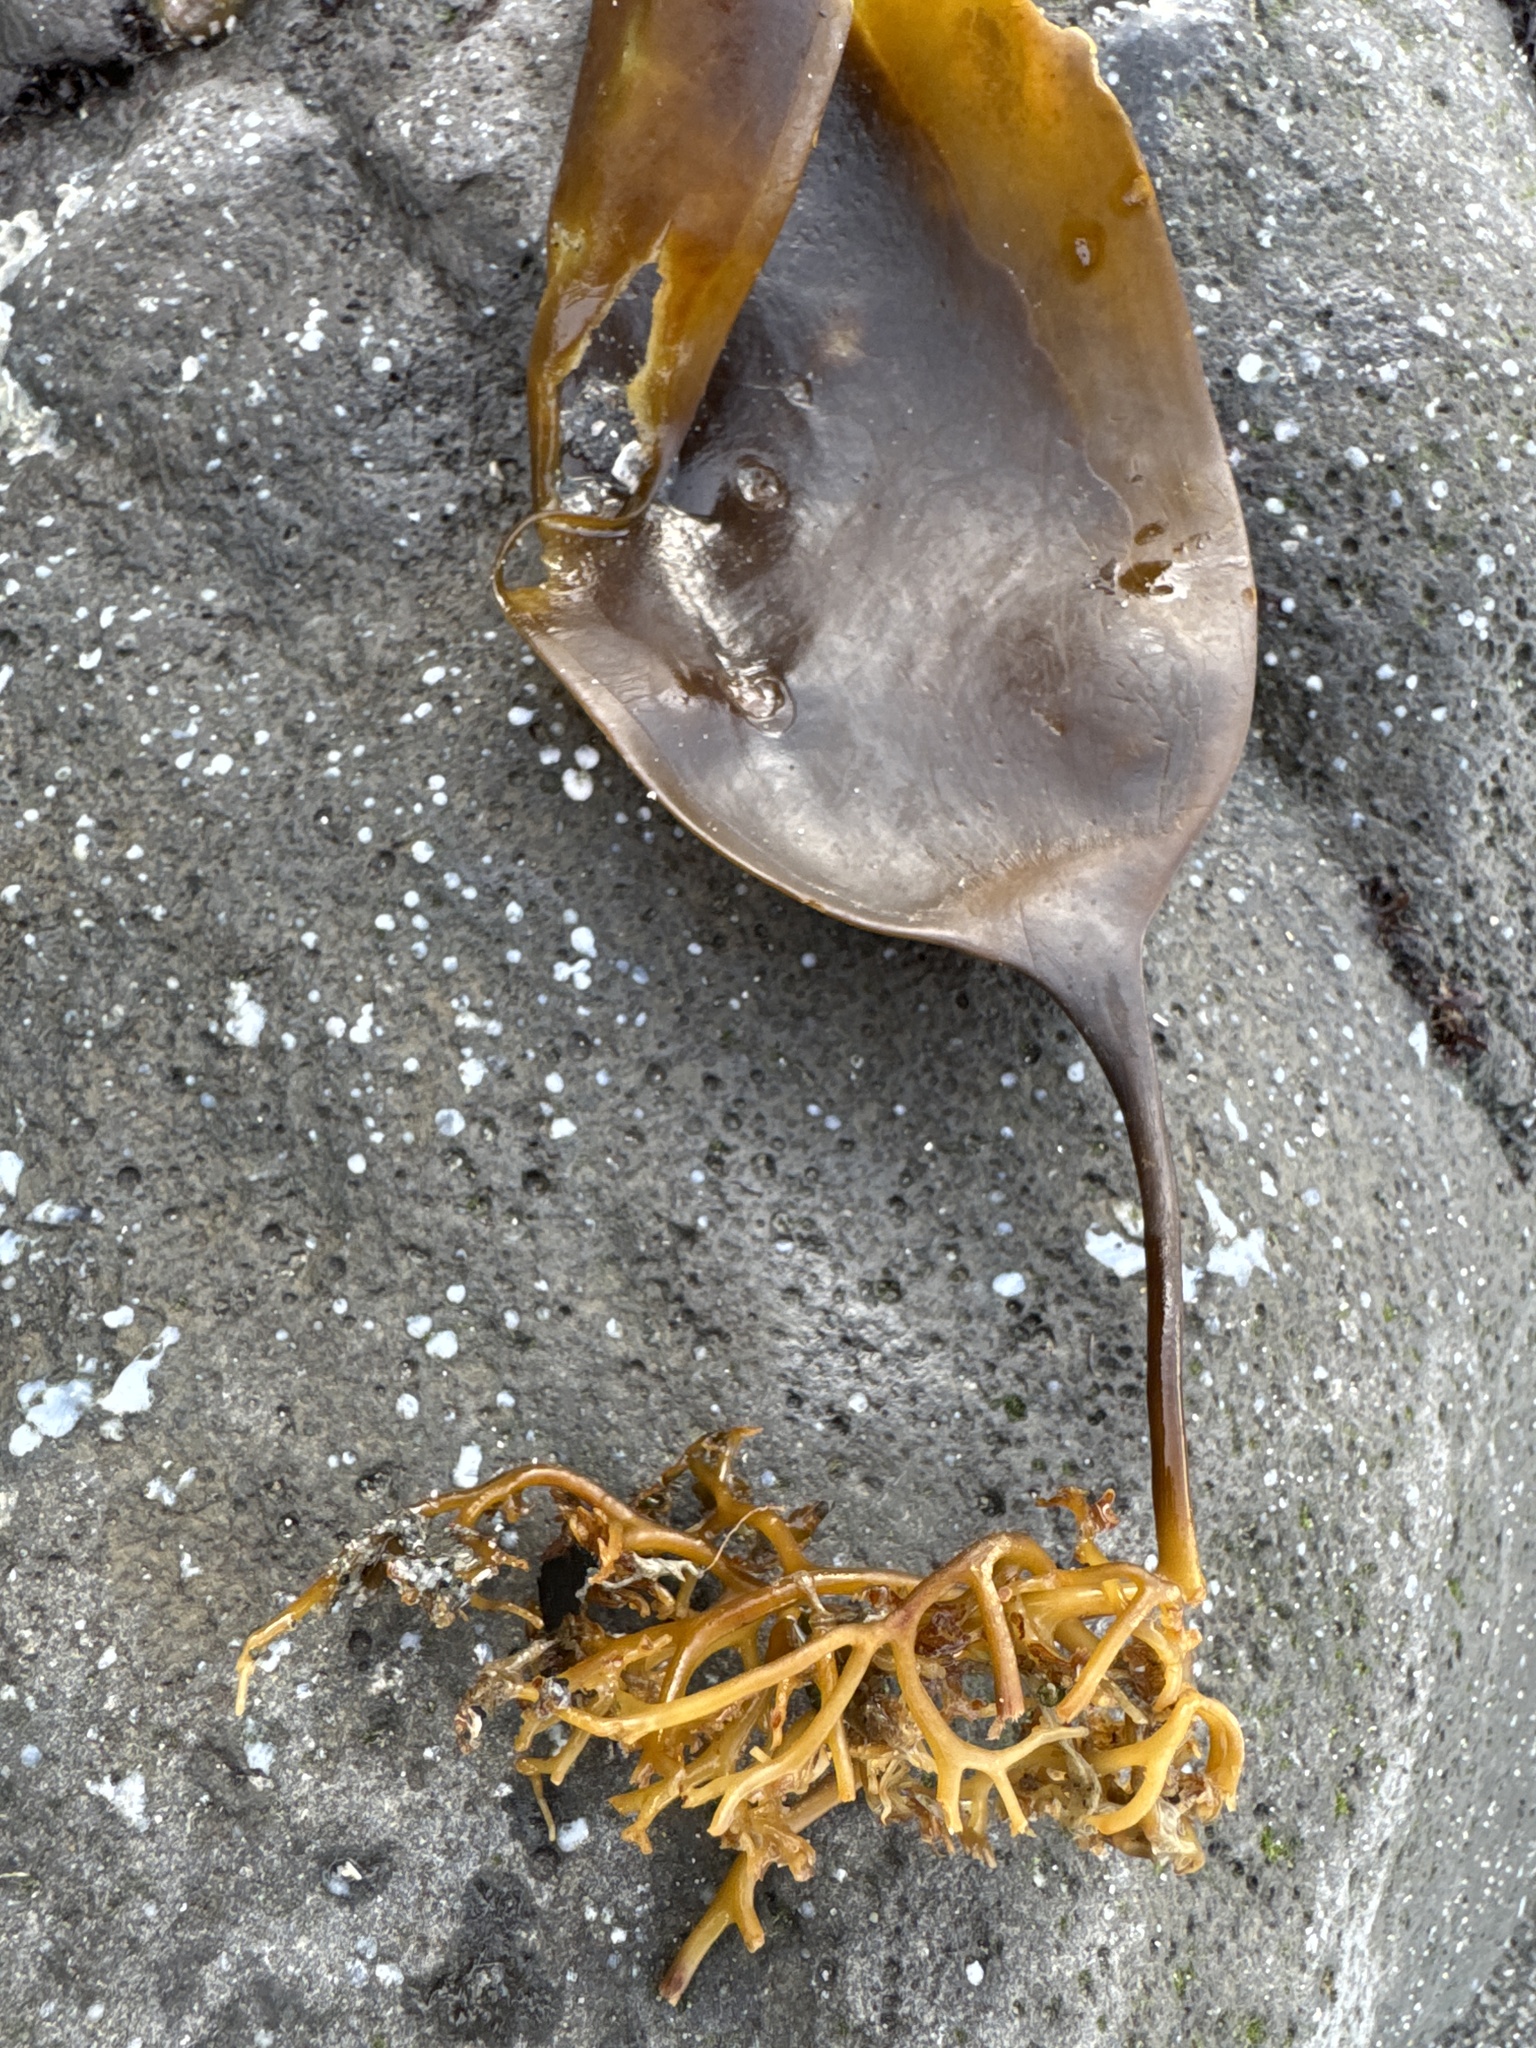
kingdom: Chromista
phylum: Ochrophyta
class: Phaeophyceae
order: Laminariales
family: Laminariaceae
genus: Saccharina
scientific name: Saccharina latissima
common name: Poor man's weather glass
